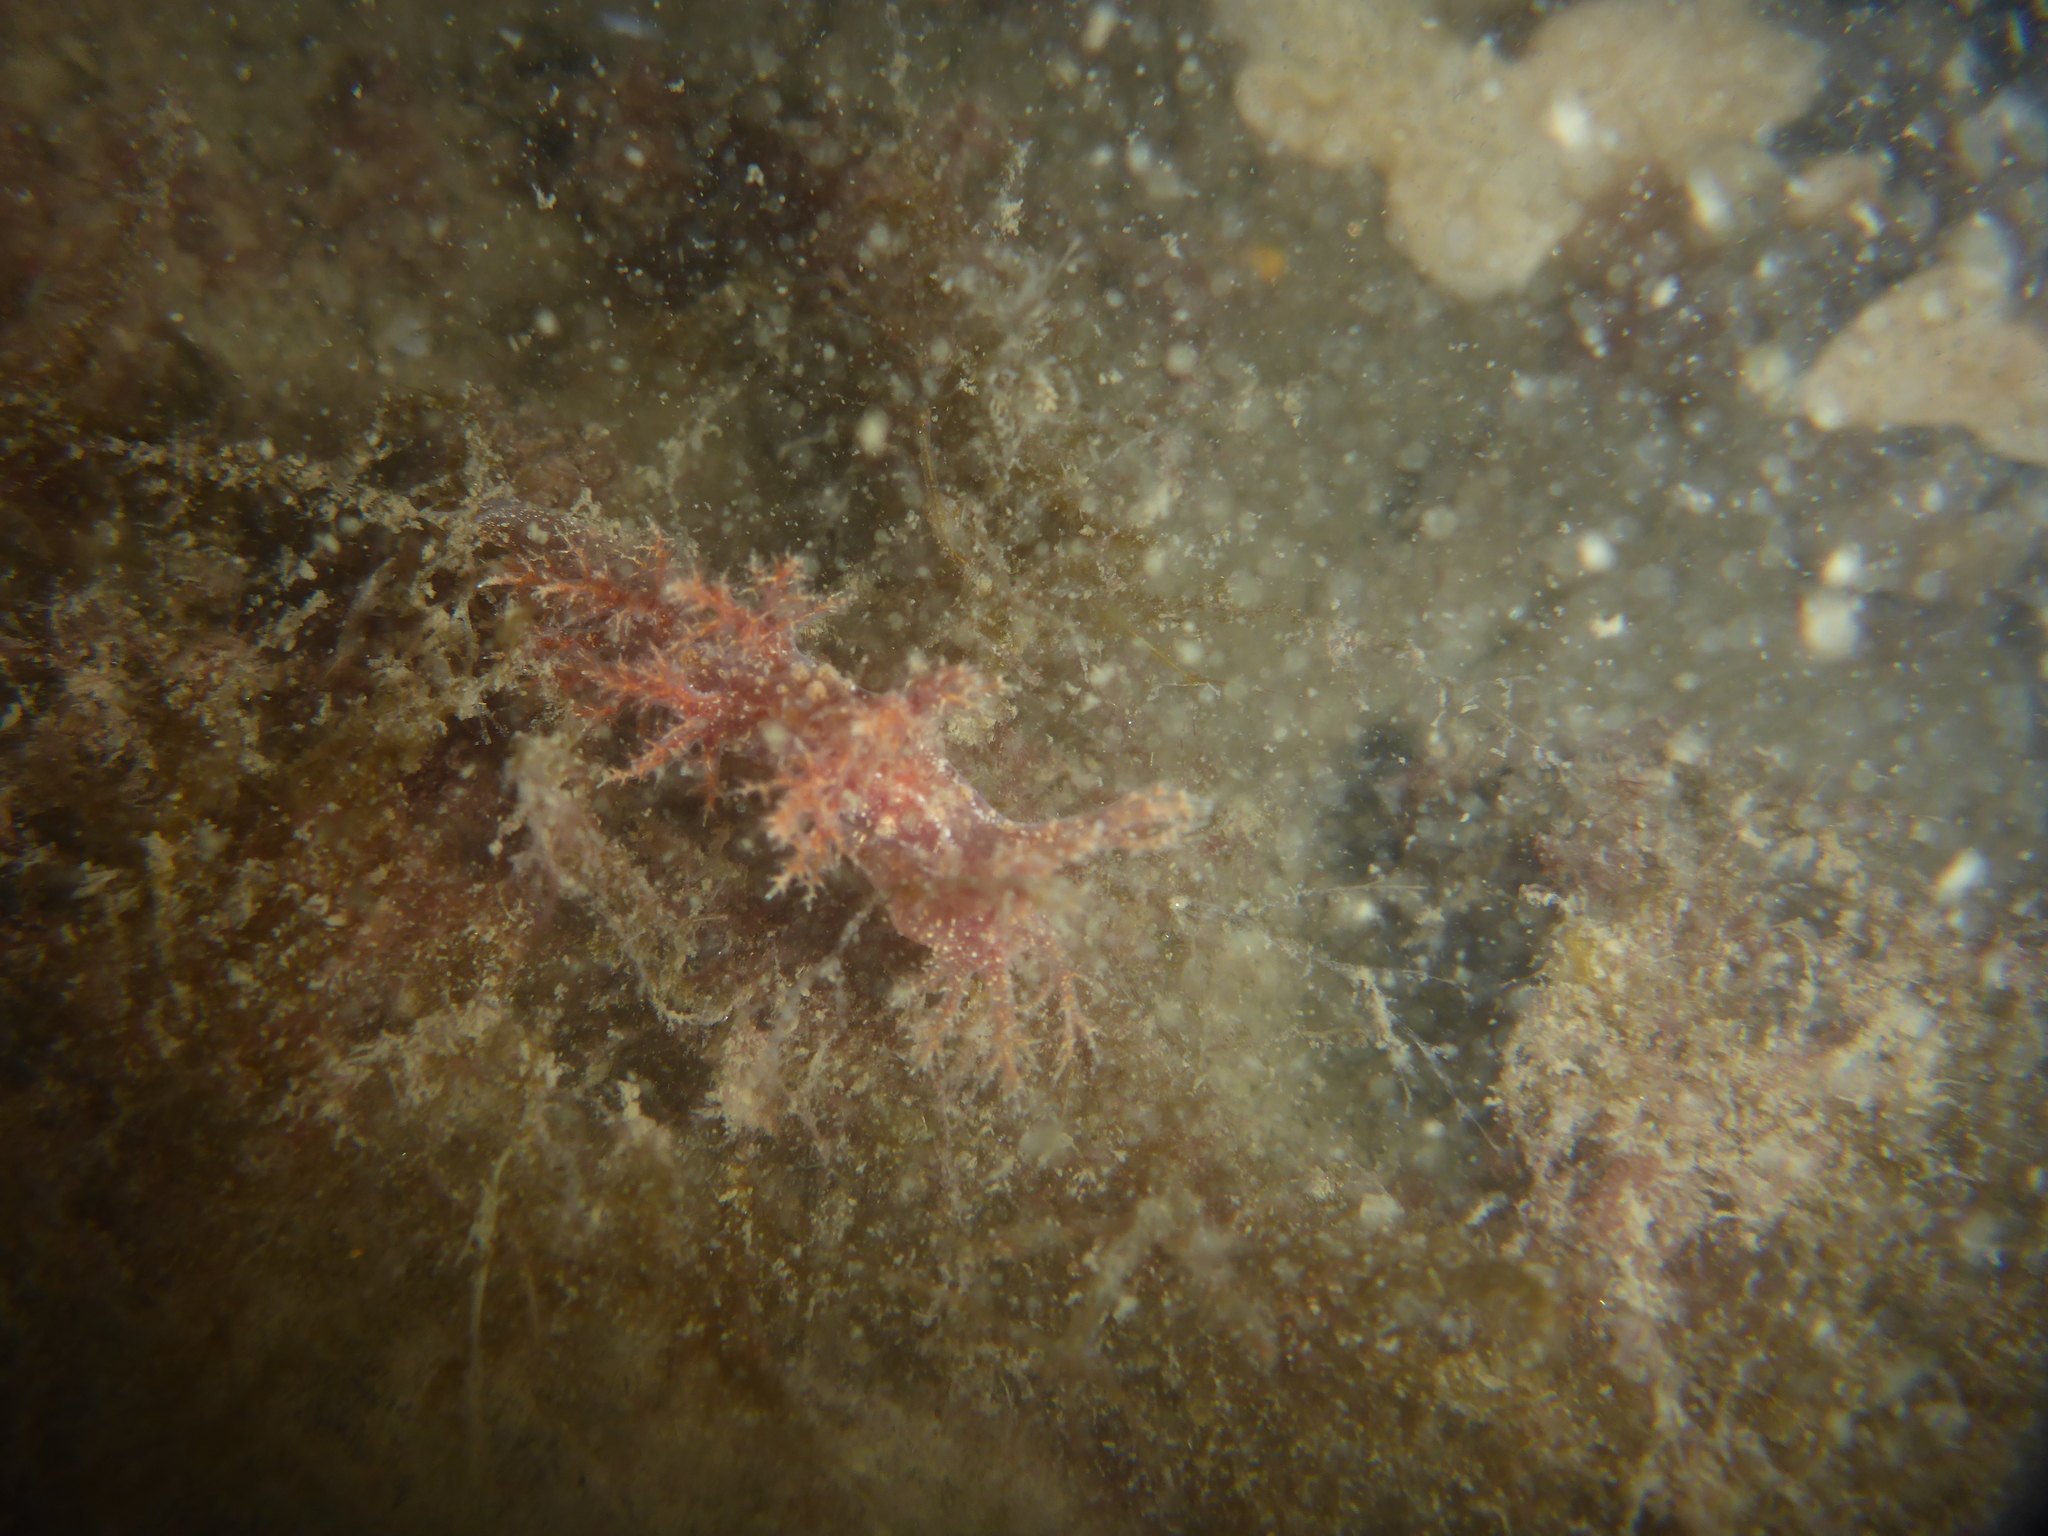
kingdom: Animalia
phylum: Mollusca
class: Gastropoda
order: Nudibranchia
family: Dendronotidae
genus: Dendronotus
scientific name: Dendronotus venustus
